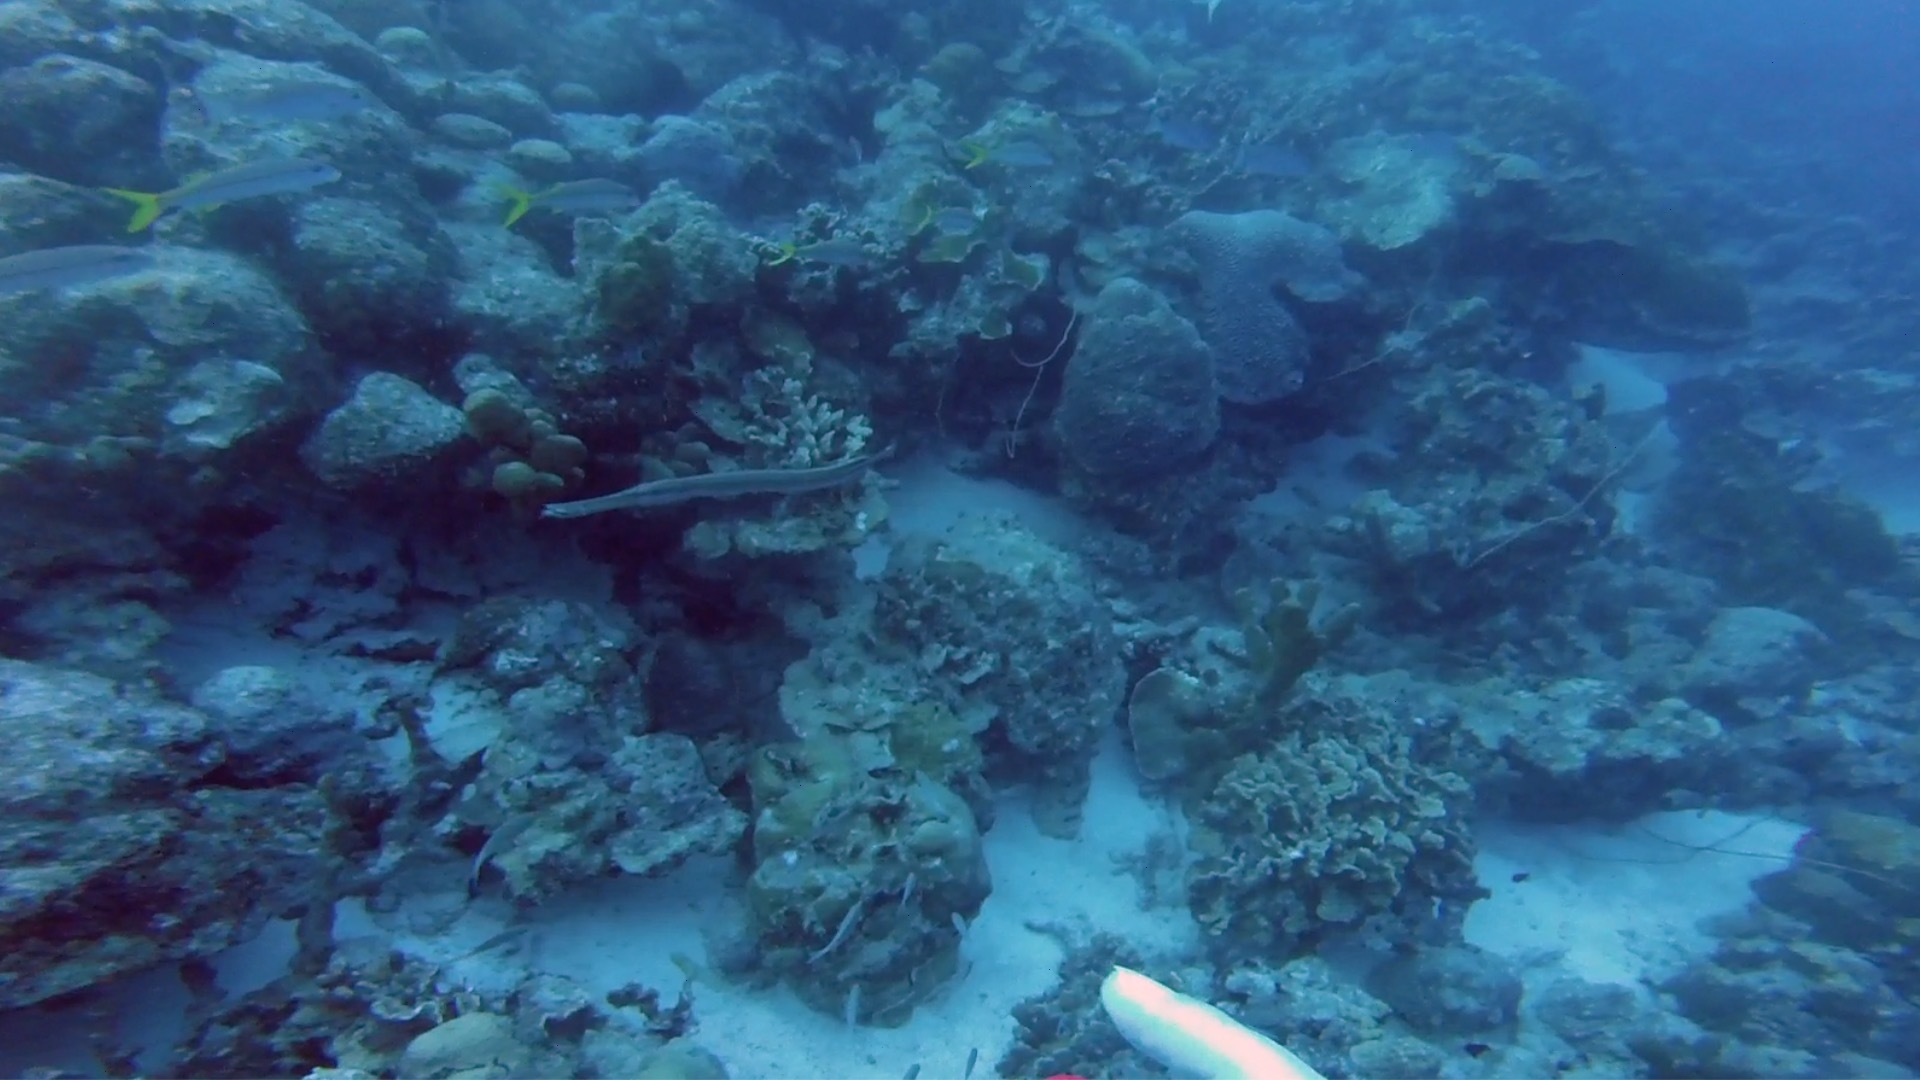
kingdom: Animalia
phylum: Chordata
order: Syngnathiformes
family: Aulostomidae
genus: Aulostomus
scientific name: Aulostomus maculatus
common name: West atlantic trumpetfish
